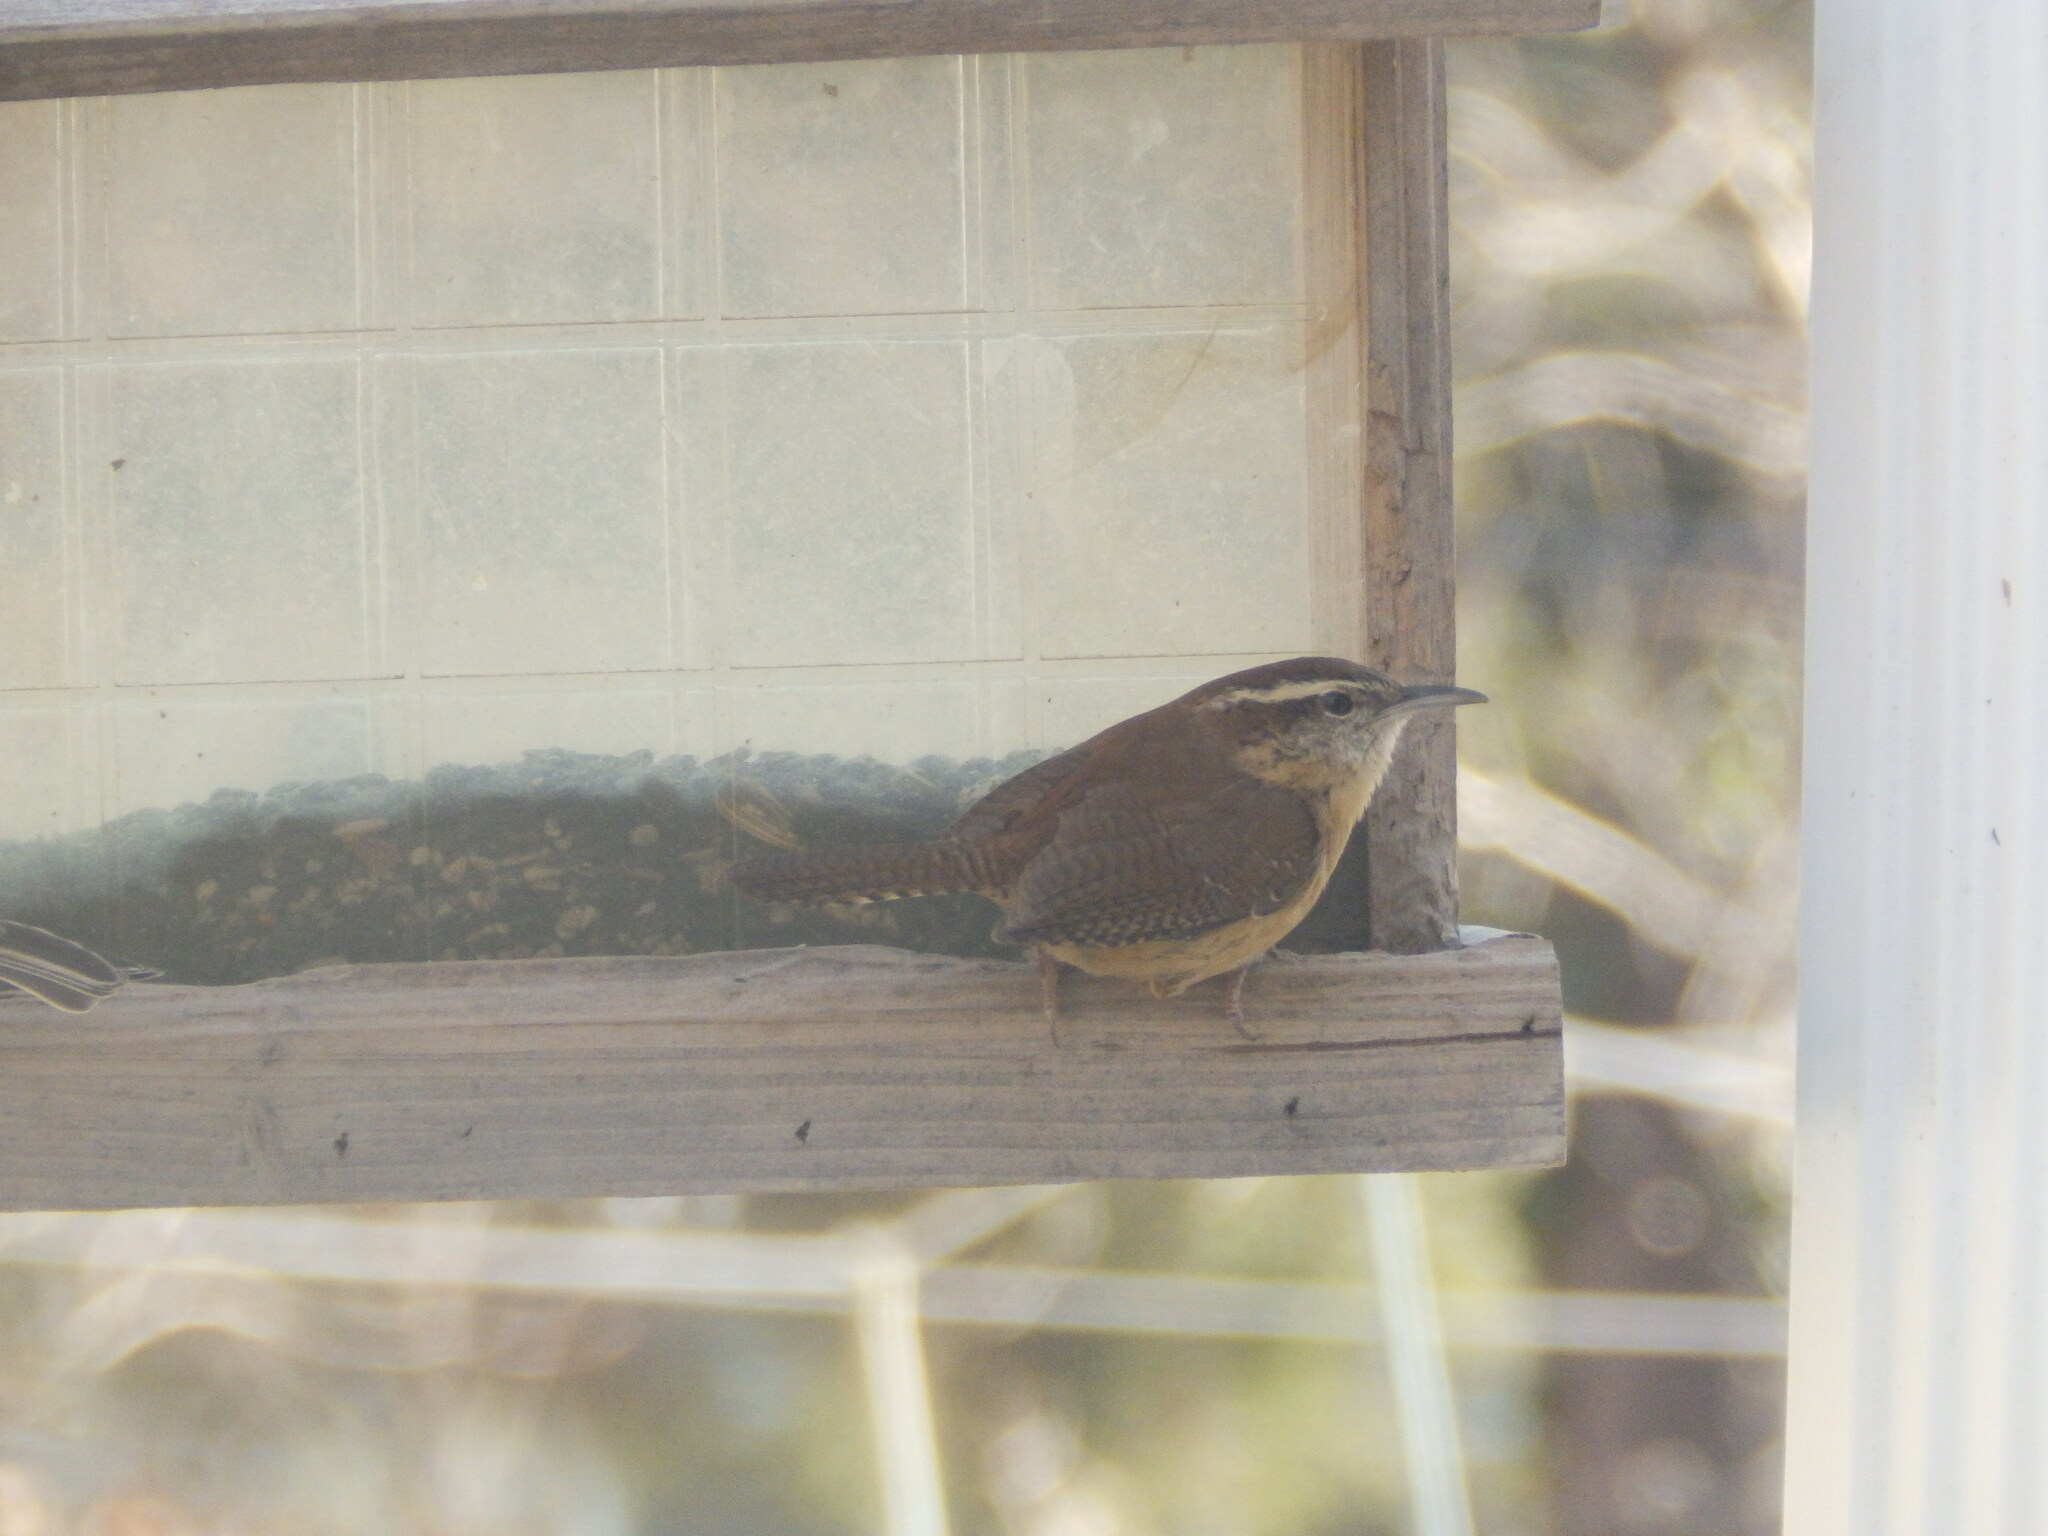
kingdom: Animalia
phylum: Chordata
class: Aves
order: Passeriformes
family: Troglodytidae
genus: Thryothorus
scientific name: Thryothorus ludovicianus
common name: Carolina wren
